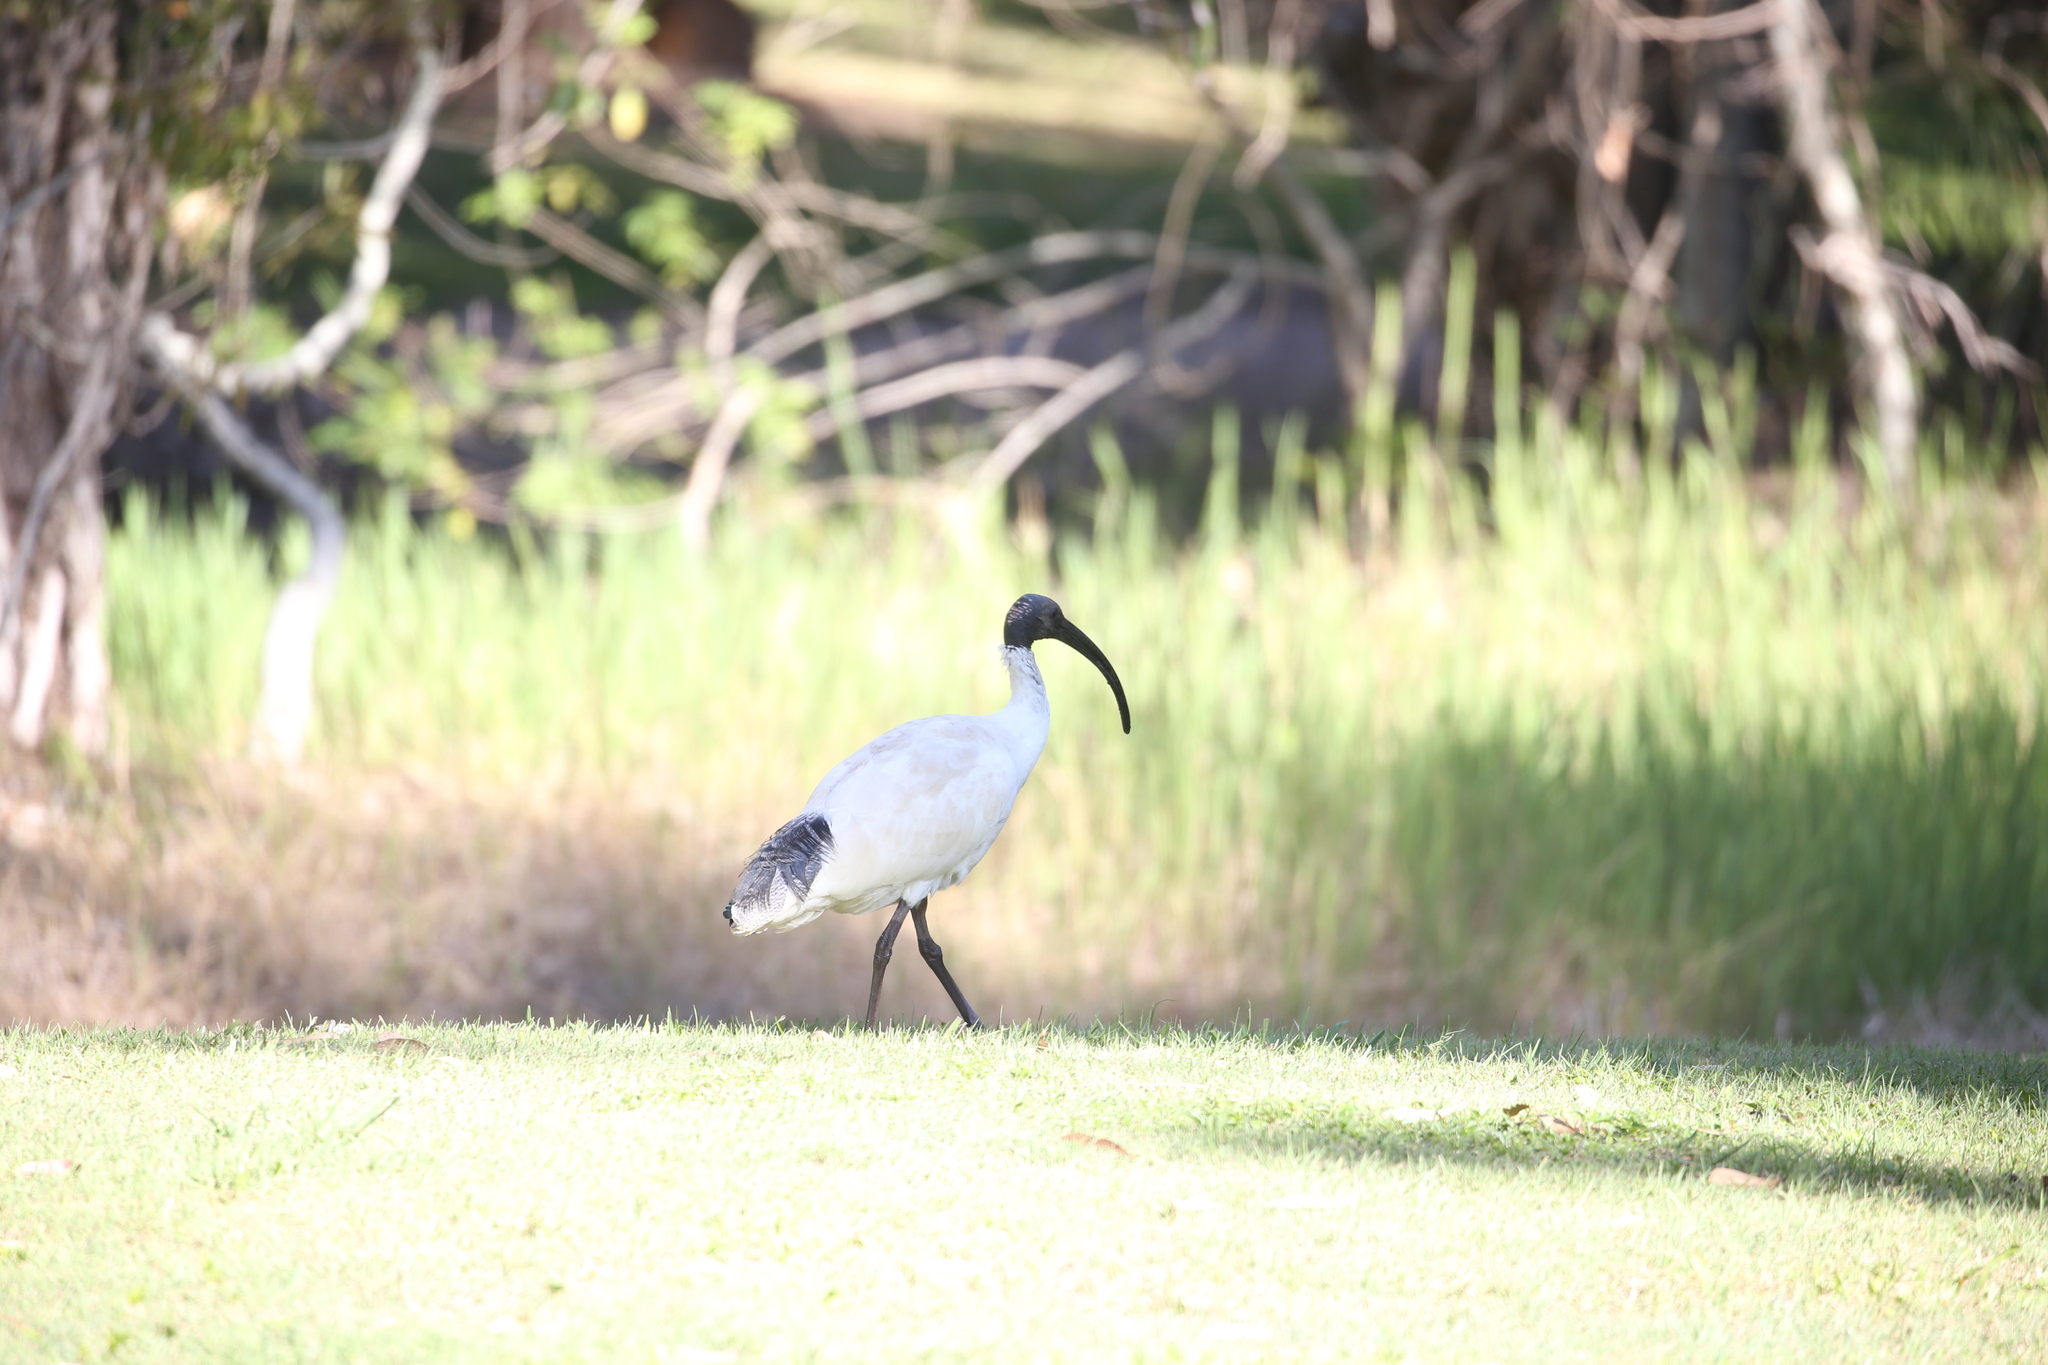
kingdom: Animalia
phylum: Chordata
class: Aves
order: Pelecaniformes
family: Threskiornithidae
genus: Threskiornis
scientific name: Threskiornis molucca
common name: Australian white ibis
